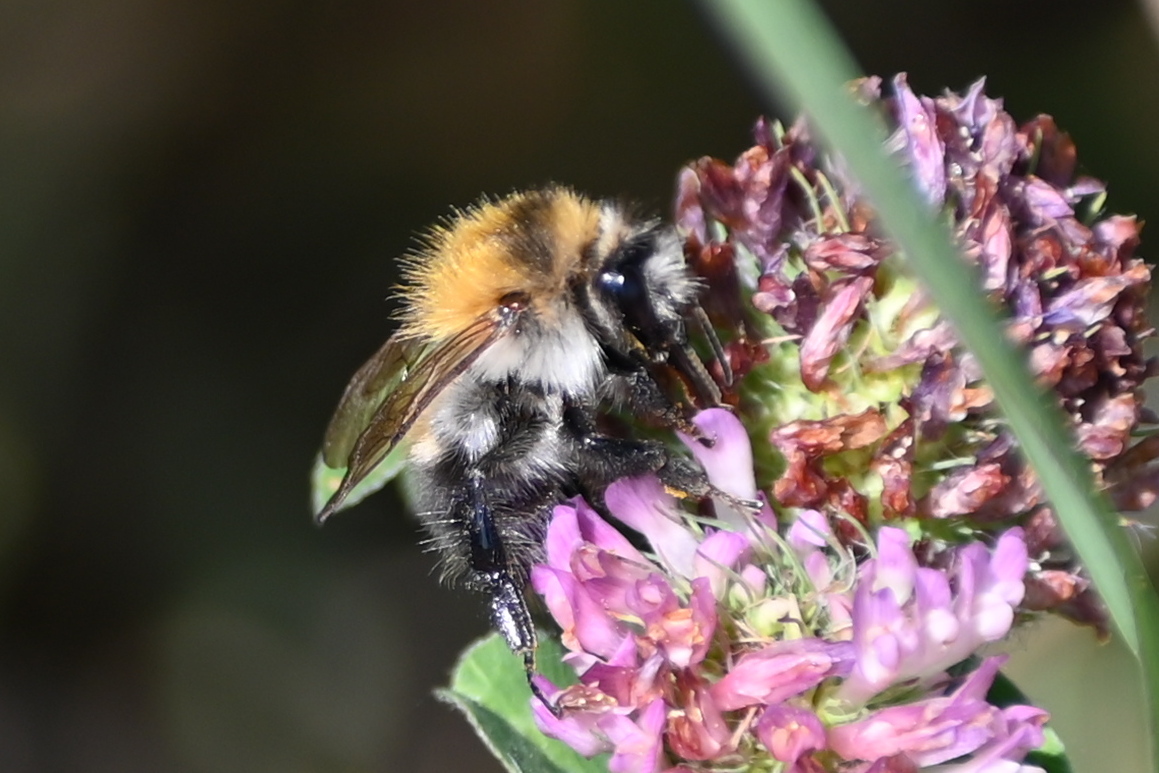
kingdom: Animalia
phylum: Arthropoda
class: Insecta
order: Hymenoptera
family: Apidae
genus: Bombus
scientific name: Bombus pascuorum
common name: Common carder bee
